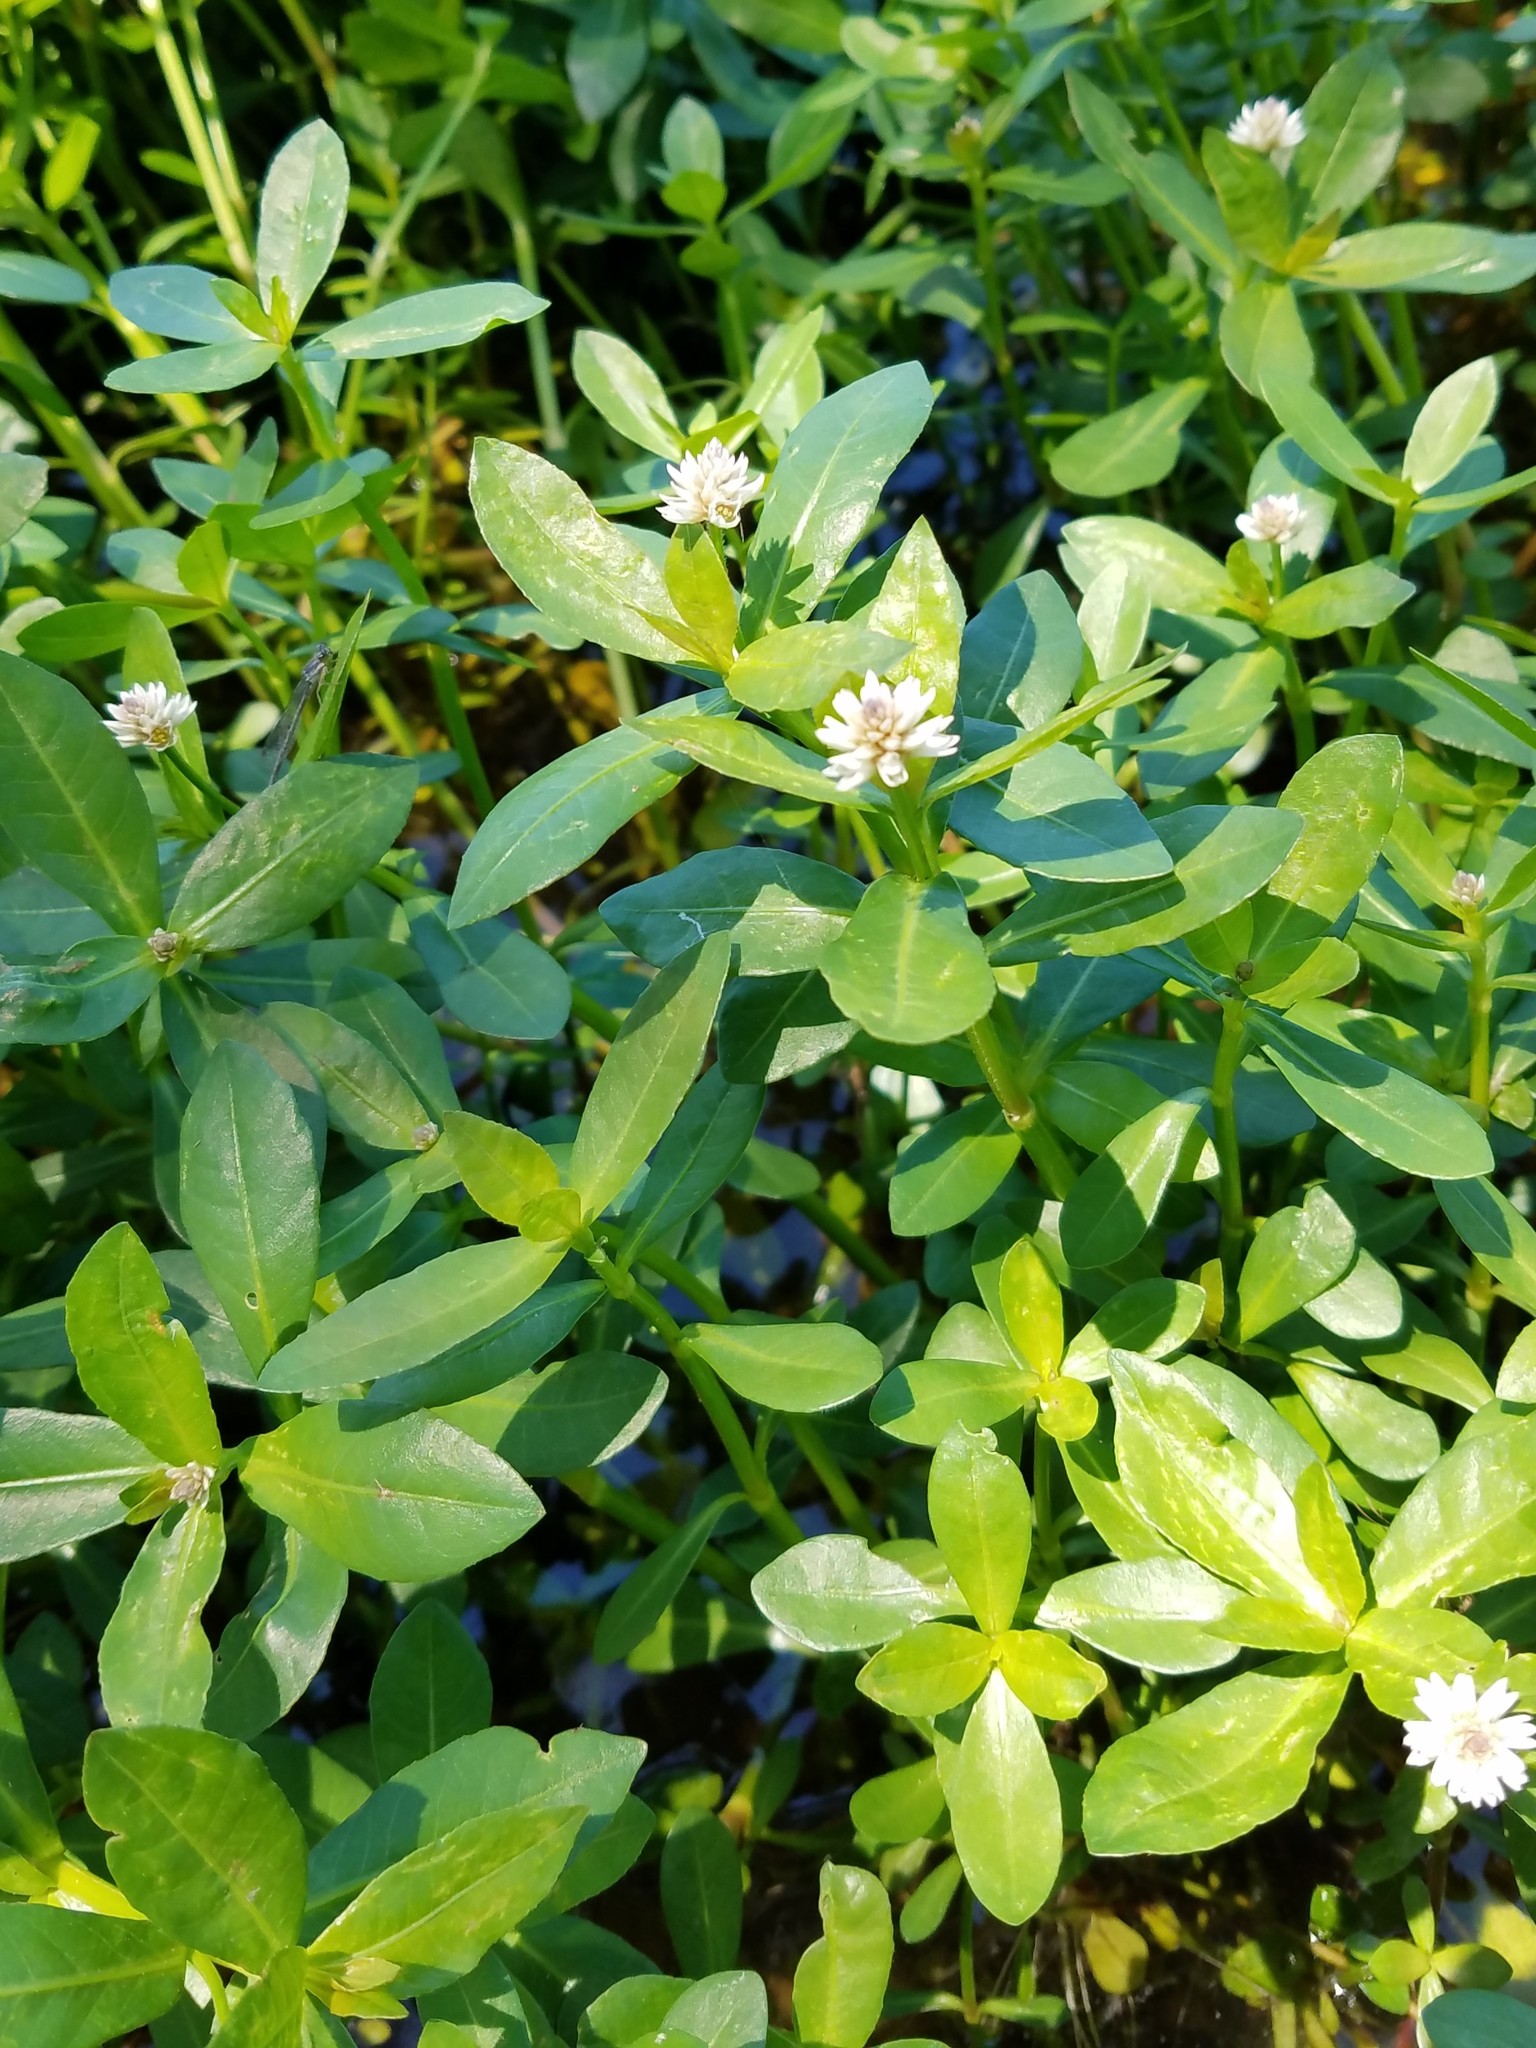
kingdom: Plantae
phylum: Tracheophyta
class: Magnoliopsida
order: Caryophyllales
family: Amaranthaceae
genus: Alternanthera
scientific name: Alternanthera philoxeroides
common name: Alligatorweed
